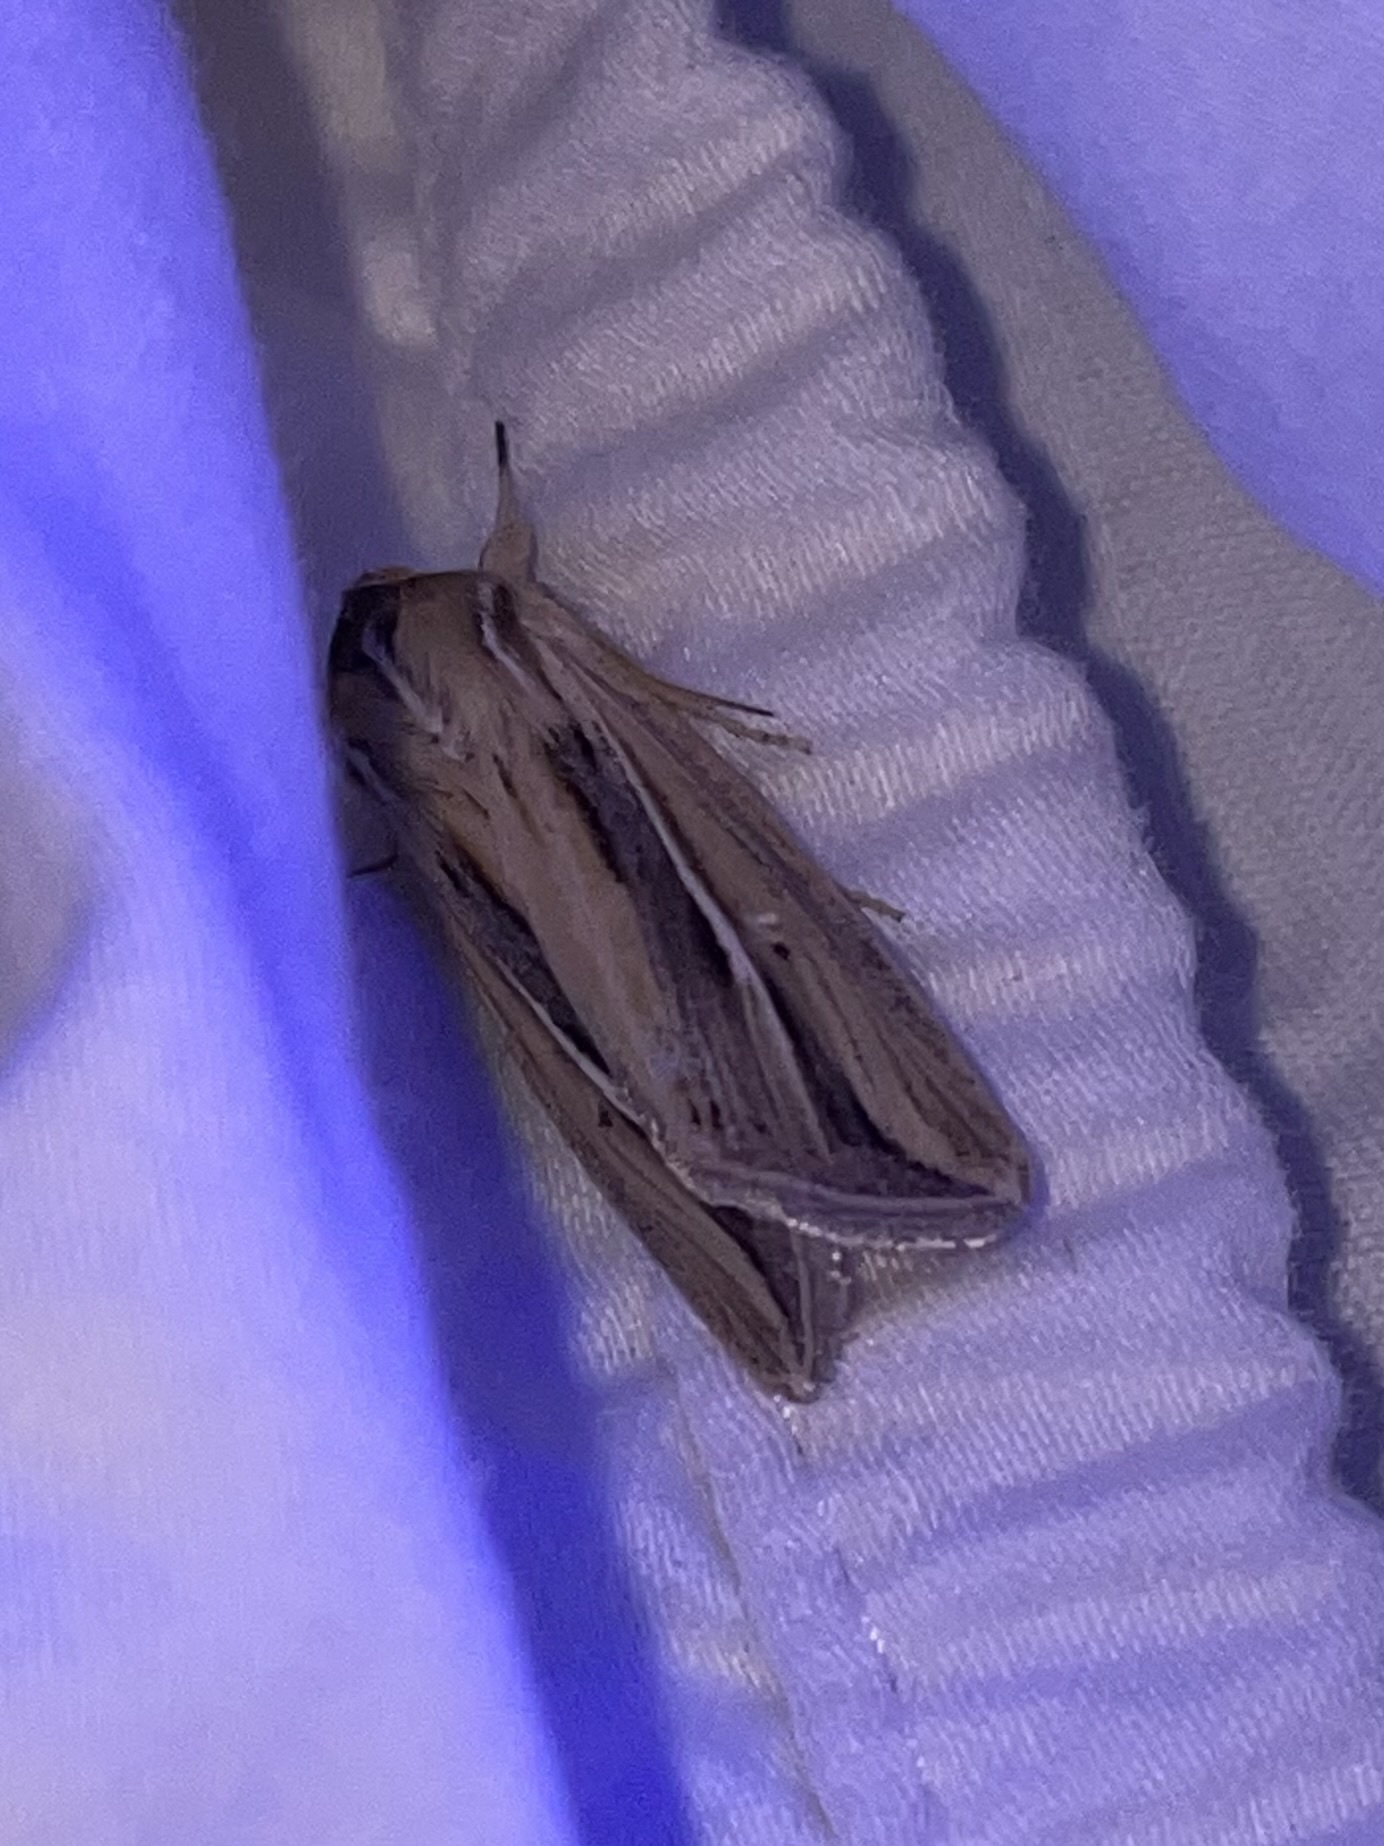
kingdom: Animalia
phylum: Arthropoda
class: Insecta
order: Lepidoptera
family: Noctuidae
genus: Dargida
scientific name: Dargida diffusa
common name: Wheat head armyworm
